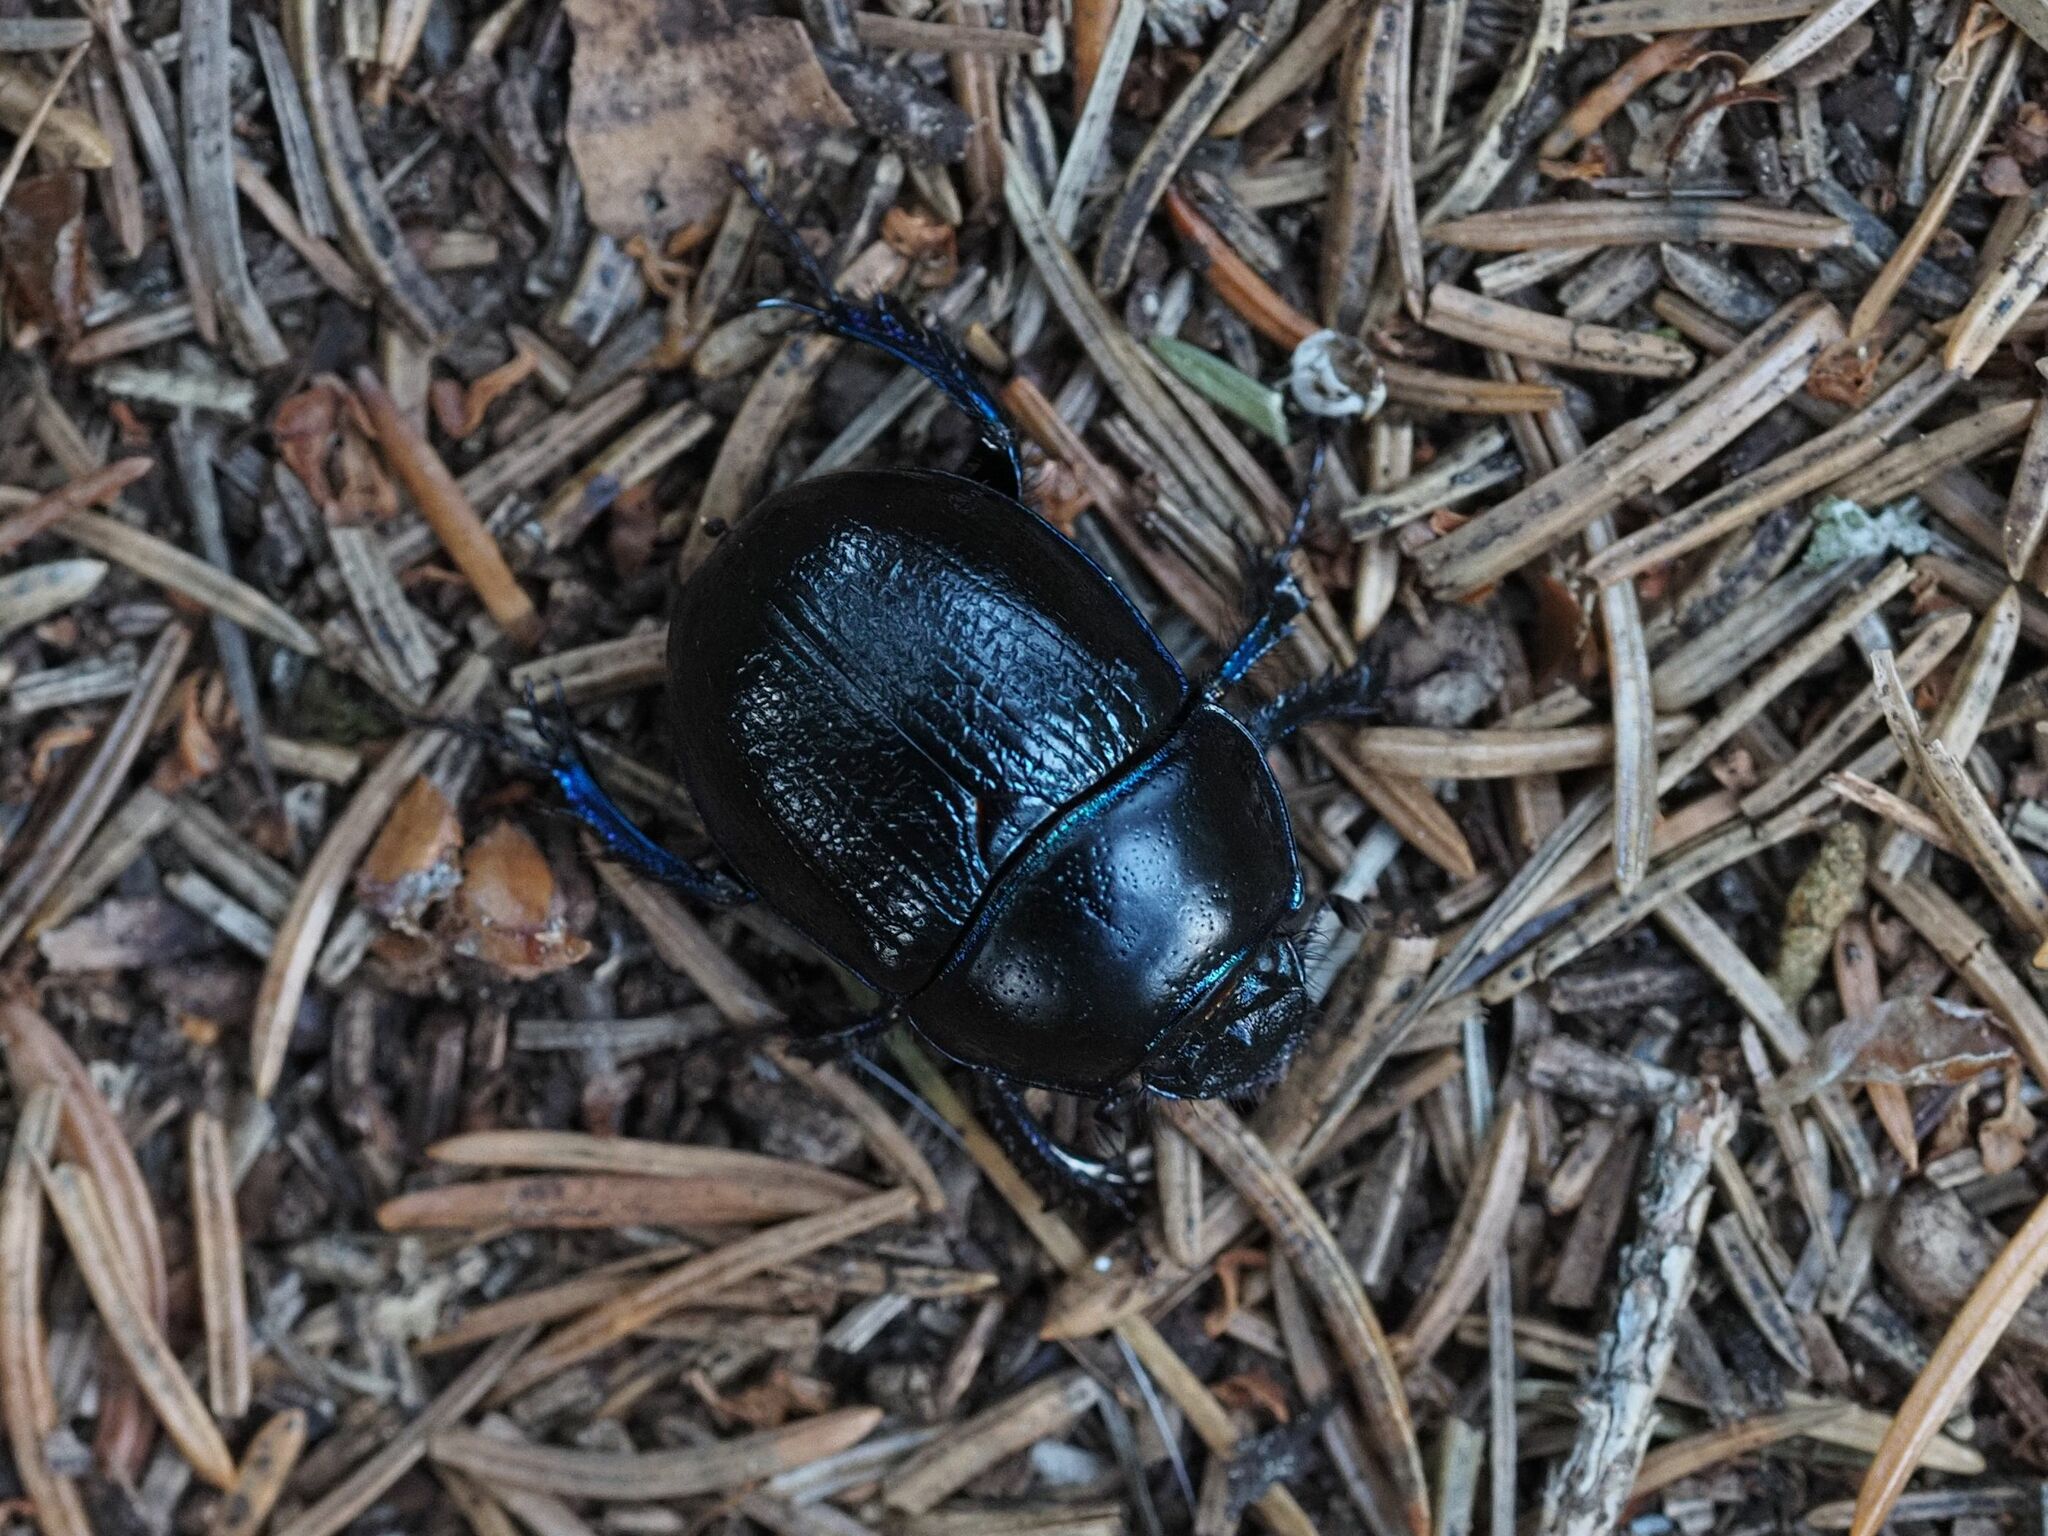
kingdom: Animalia
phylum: Arthropoda
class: Insecta
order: Coleoptera
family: Geotrupidae
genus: Anoplotrupes
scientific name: Anoplotrupes stercorosus
